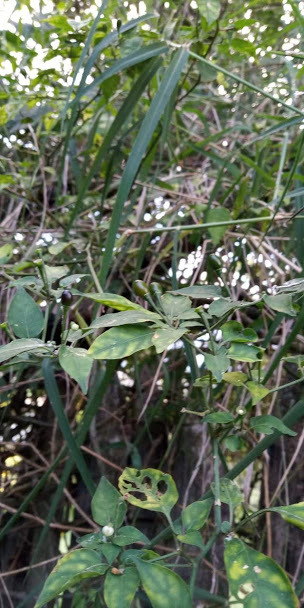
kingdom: Plantae
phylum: Tracheophyta
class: Magnoliopsida
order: Solanales
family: Solanaceae
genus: Capsicum
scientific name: Capsicum annuum
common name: Sweet pepper
